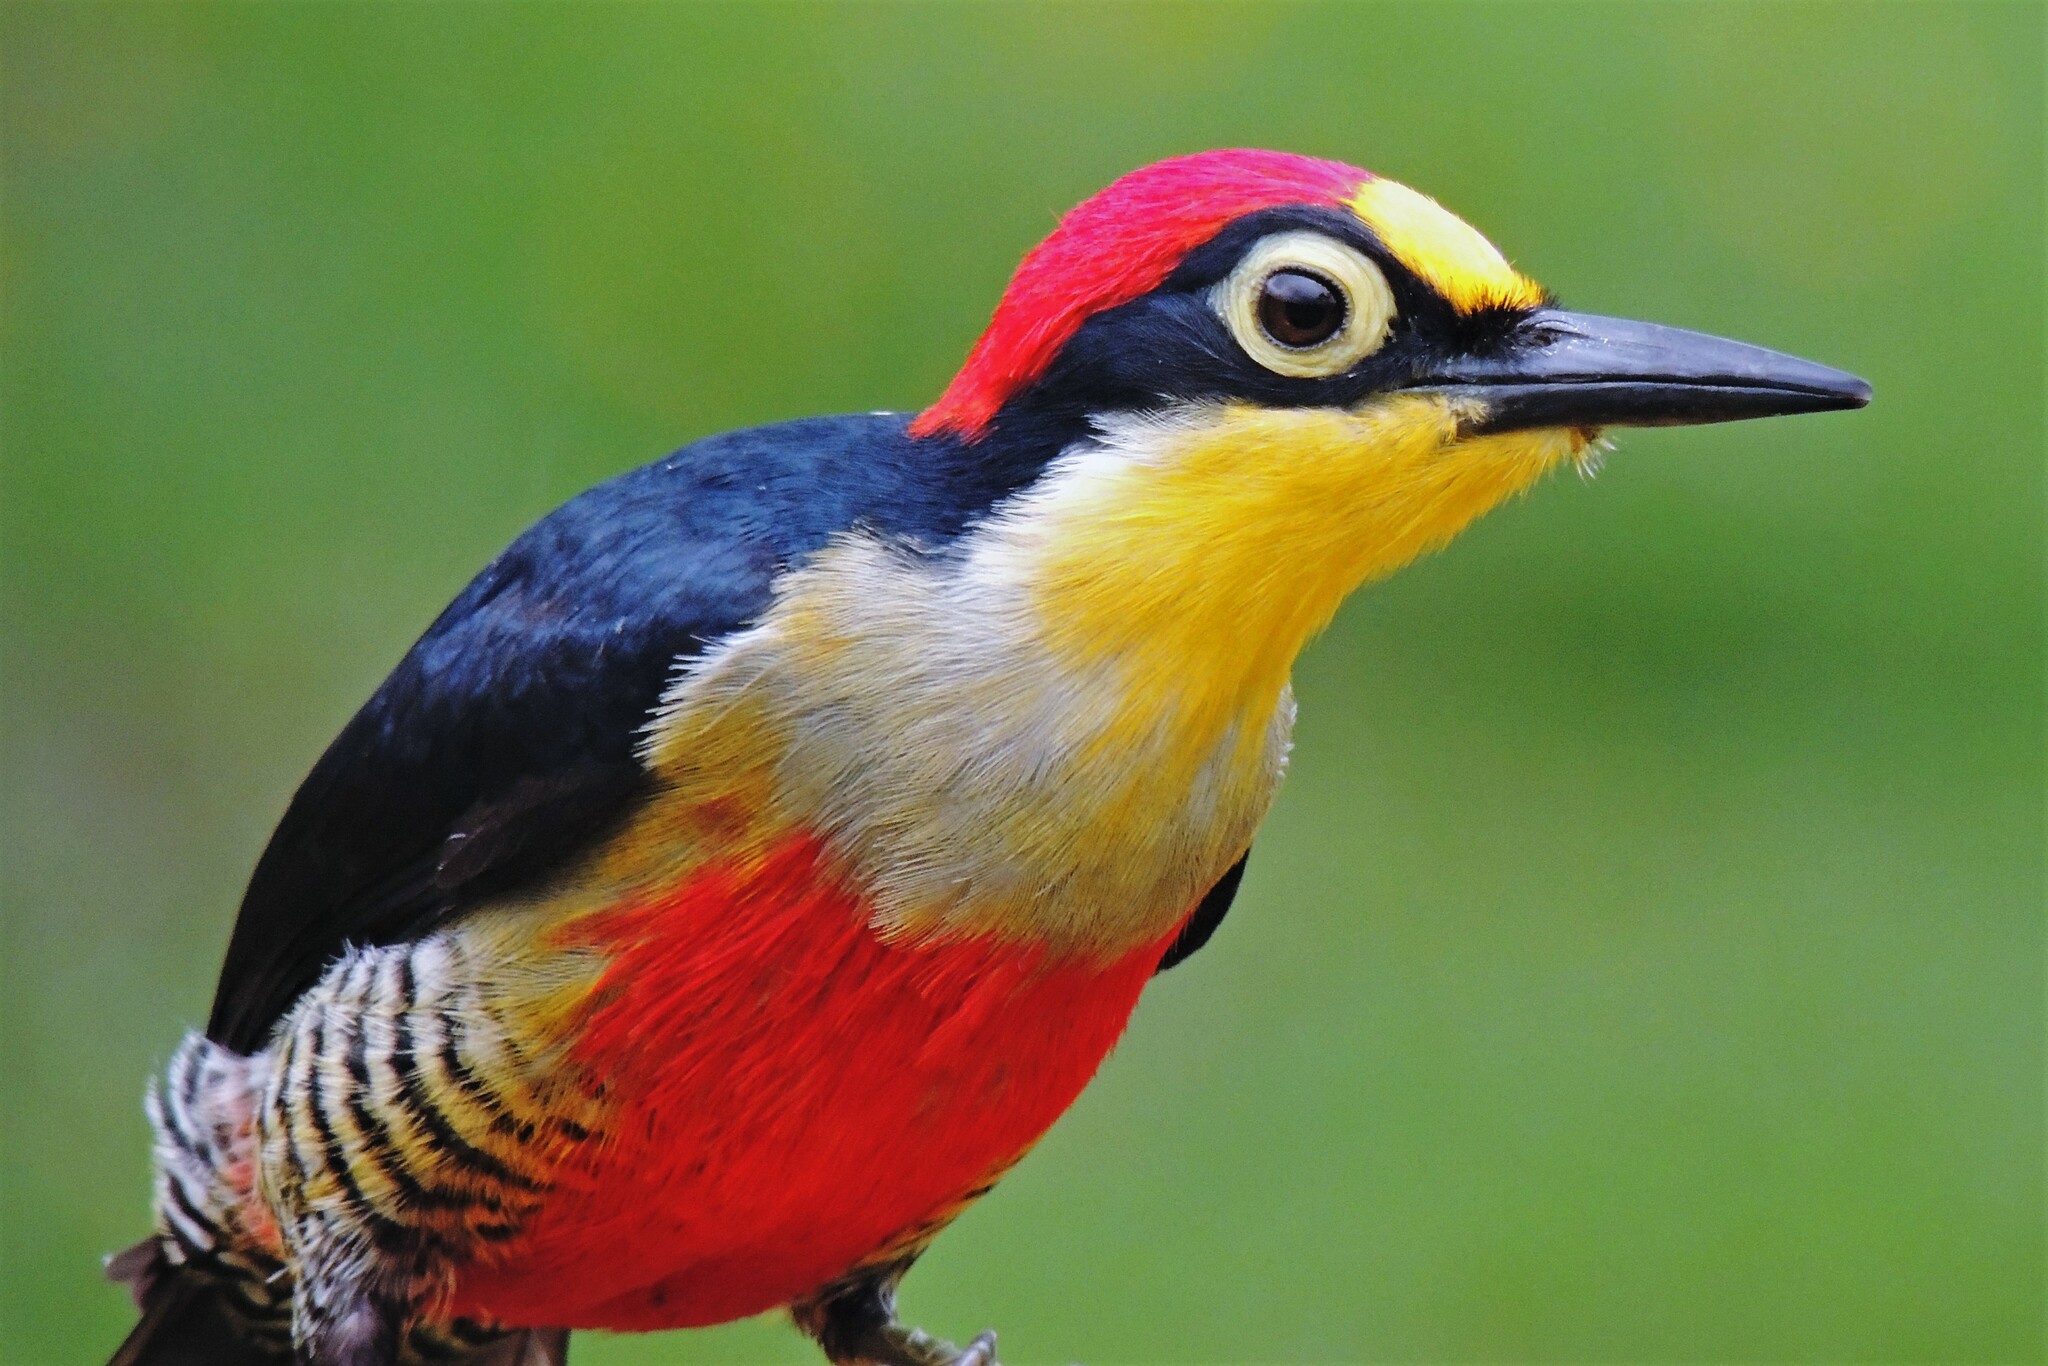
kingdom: Animalia
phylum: Chordata
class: Aves
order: Piciformes
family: Picidae
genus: Melanerpes
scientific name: Melanerpes flavifrons
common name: Yellow-fronted woodpecker
